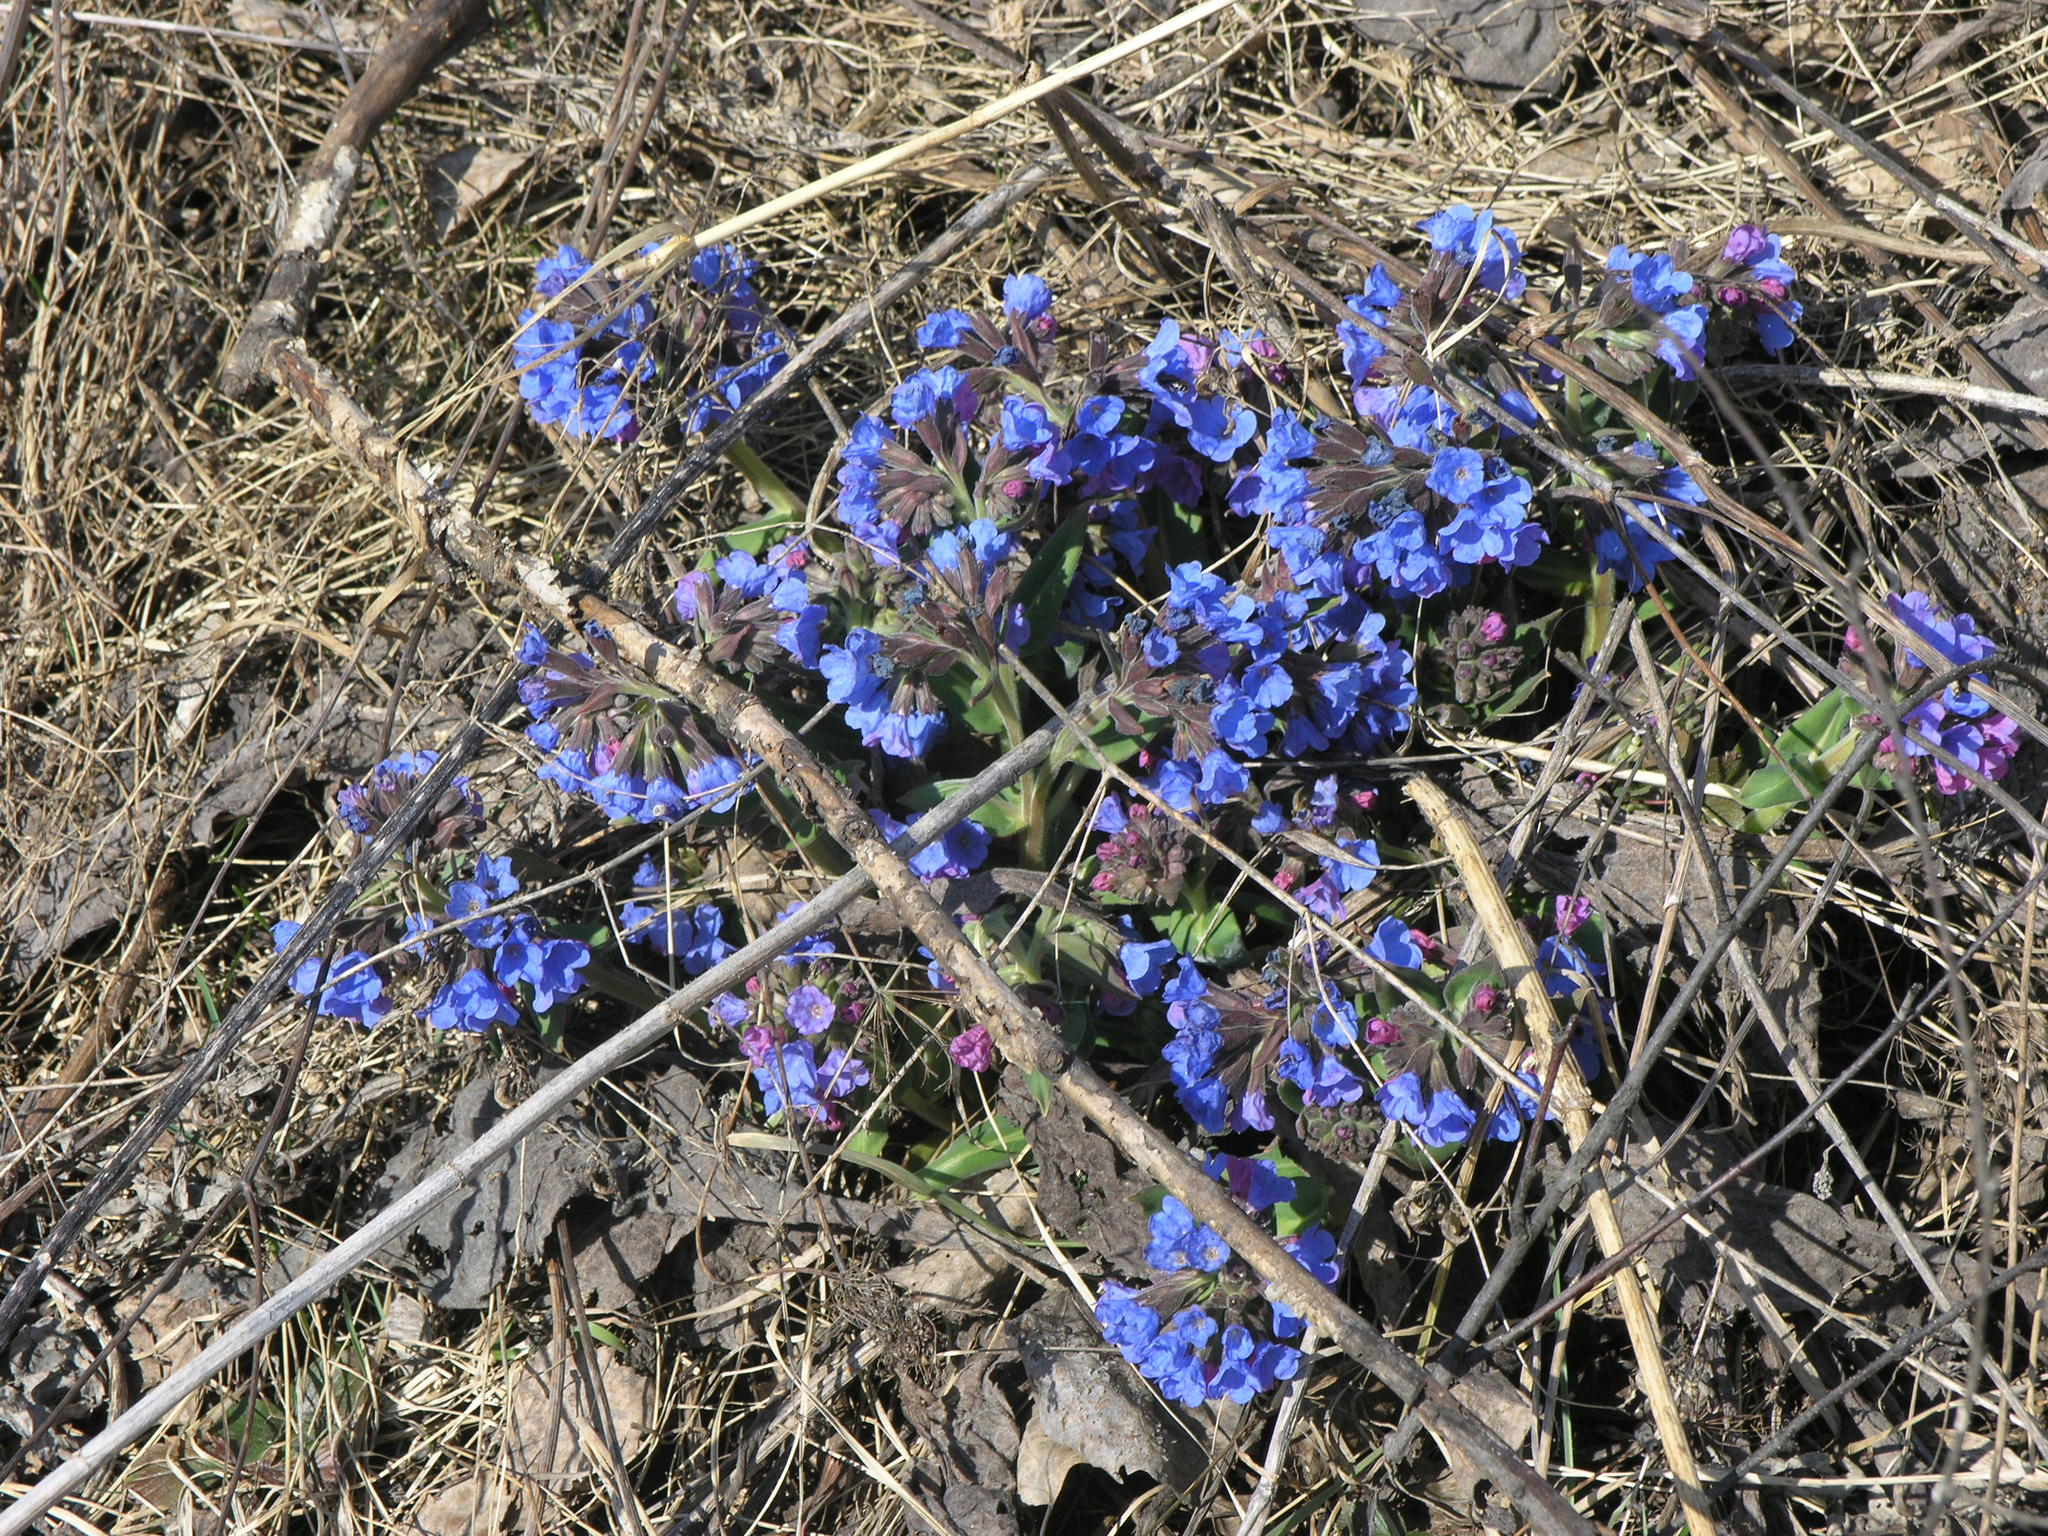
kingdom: Plantae
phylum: Tracheophyta
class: Magnoliopsida
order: Boraginales
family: Boraginaceae
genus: Pulmonaria
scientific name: Pulmonaria mollis
